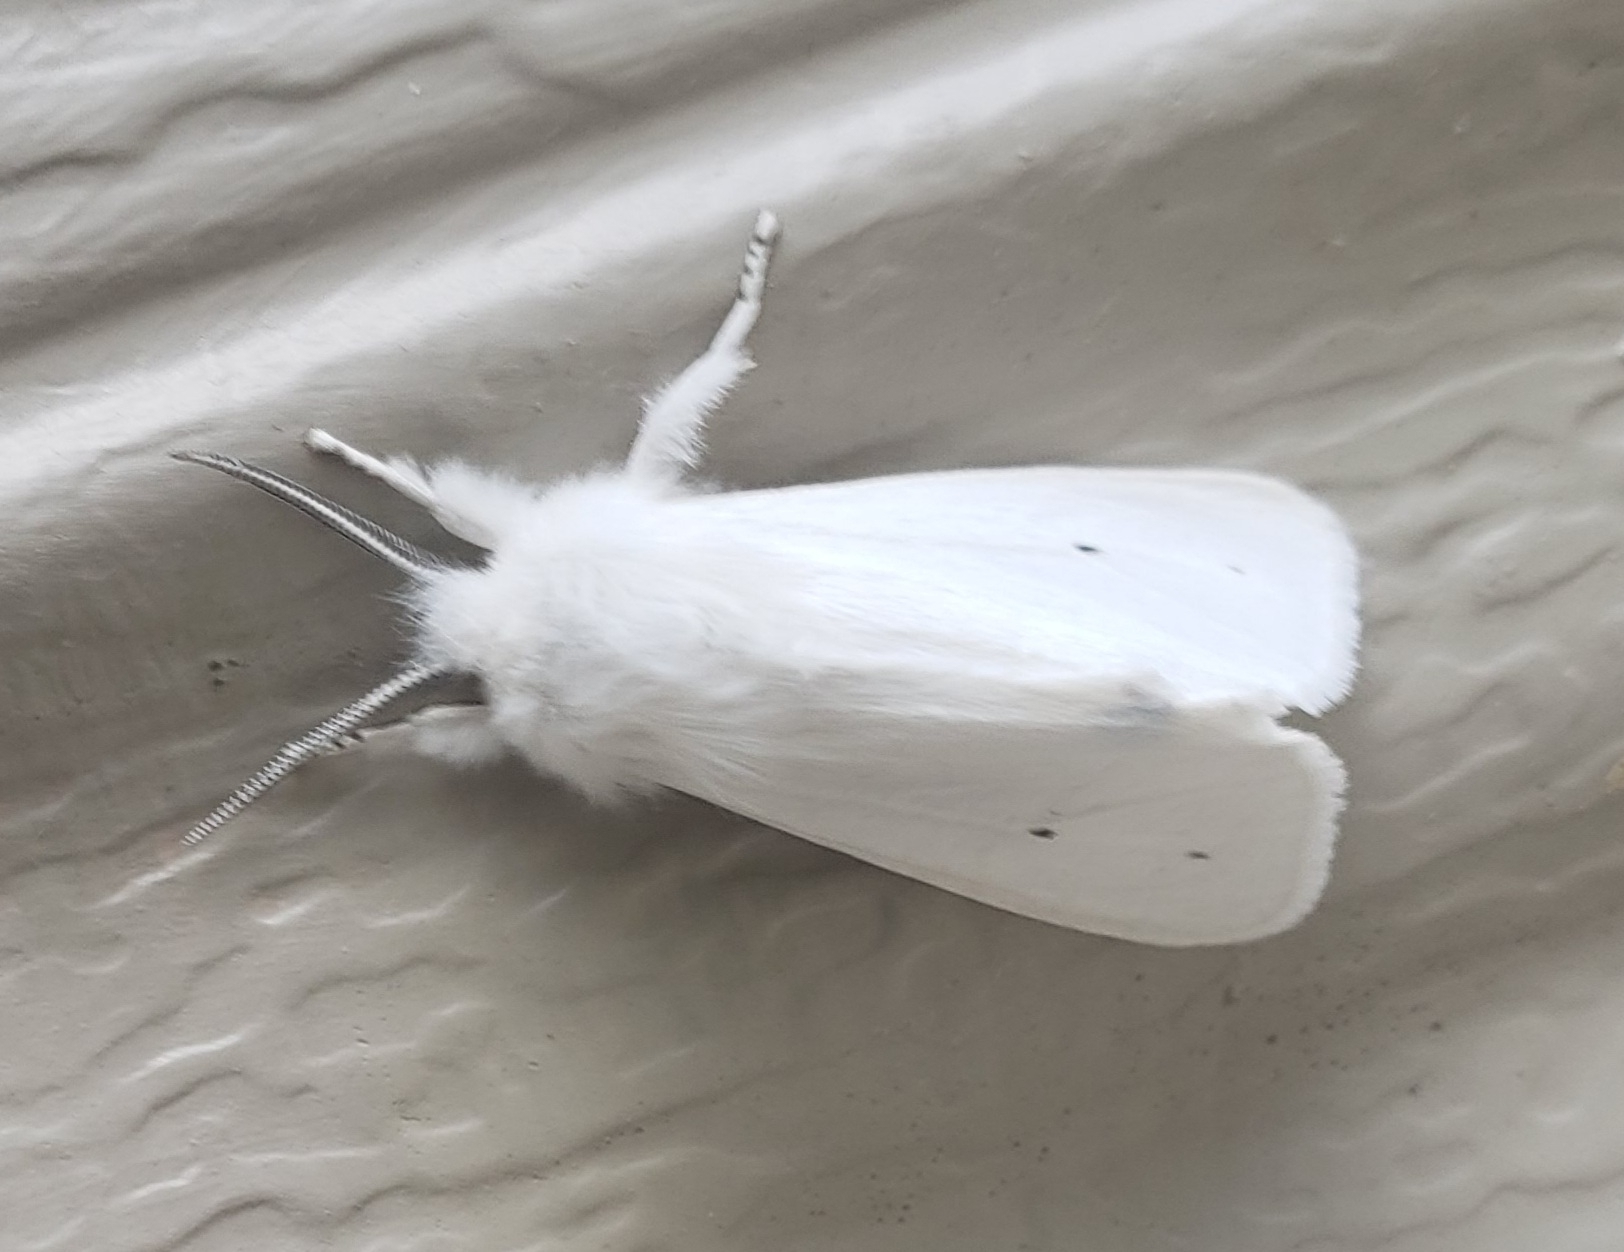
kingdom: Animalia
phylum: Arthropoda
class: Insecta
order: Lepidoptera
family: Erebidae
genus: Spilosoma
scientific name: Spilosoma virginica
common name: Virginia tiger moth
